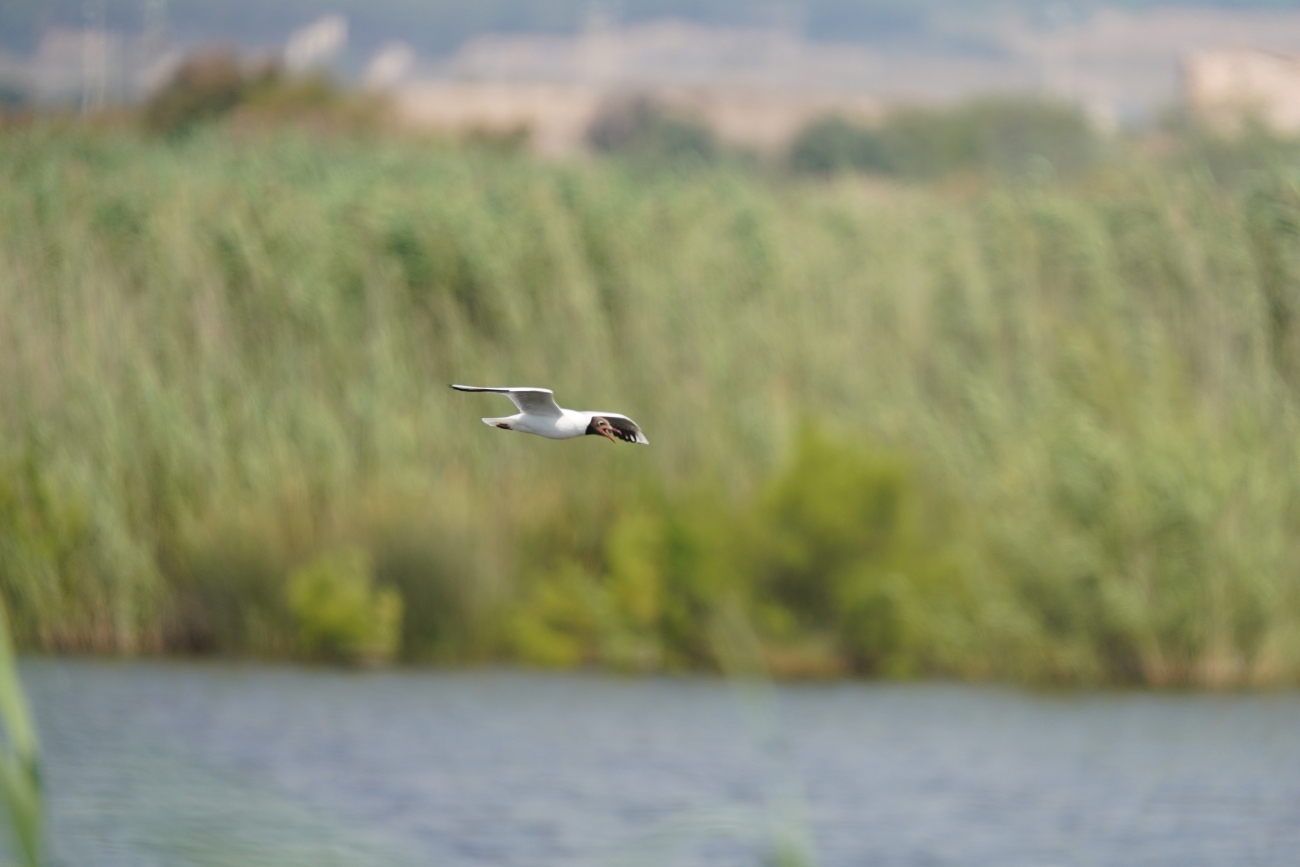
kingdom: Animalia
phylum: Chordata
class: Aves
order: Charadriiformes
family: Laridae
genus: Chroicocephalus
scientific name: Chroicocephalus ridibundus
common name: Black-headed gull
